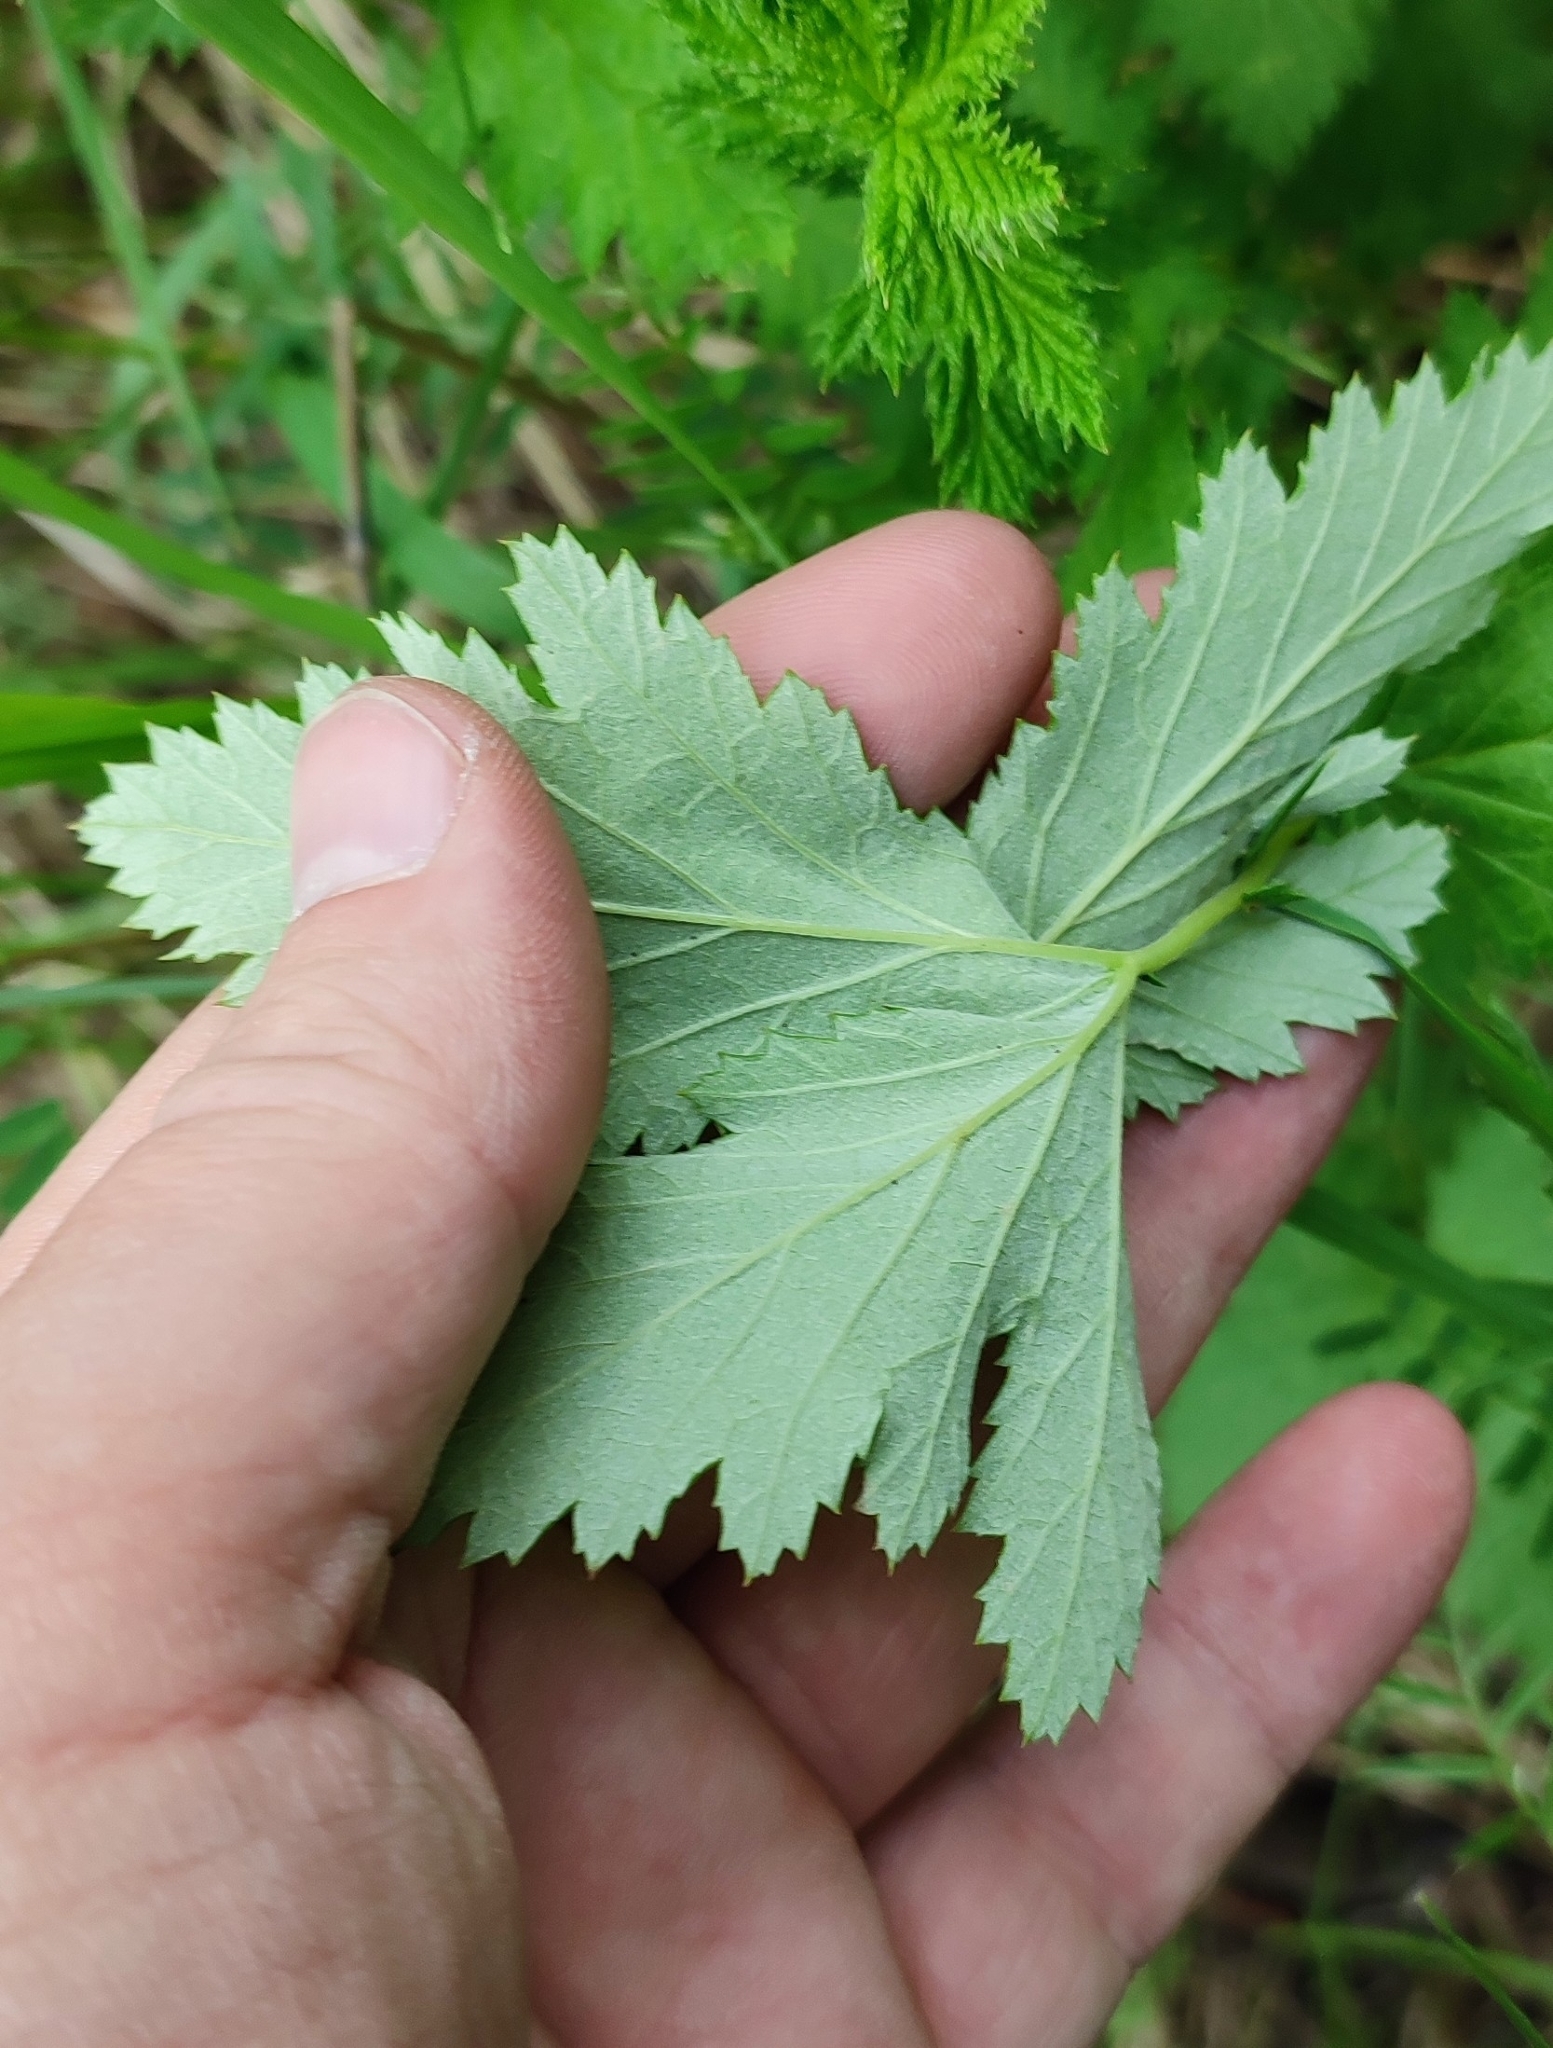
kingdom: Plantae
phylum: Tracheophyta
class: Magnoliopsida
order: Rosales
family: Rosaceae
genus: Filipendula
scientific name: Filipendula ulmaria
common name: Meadowsweet
